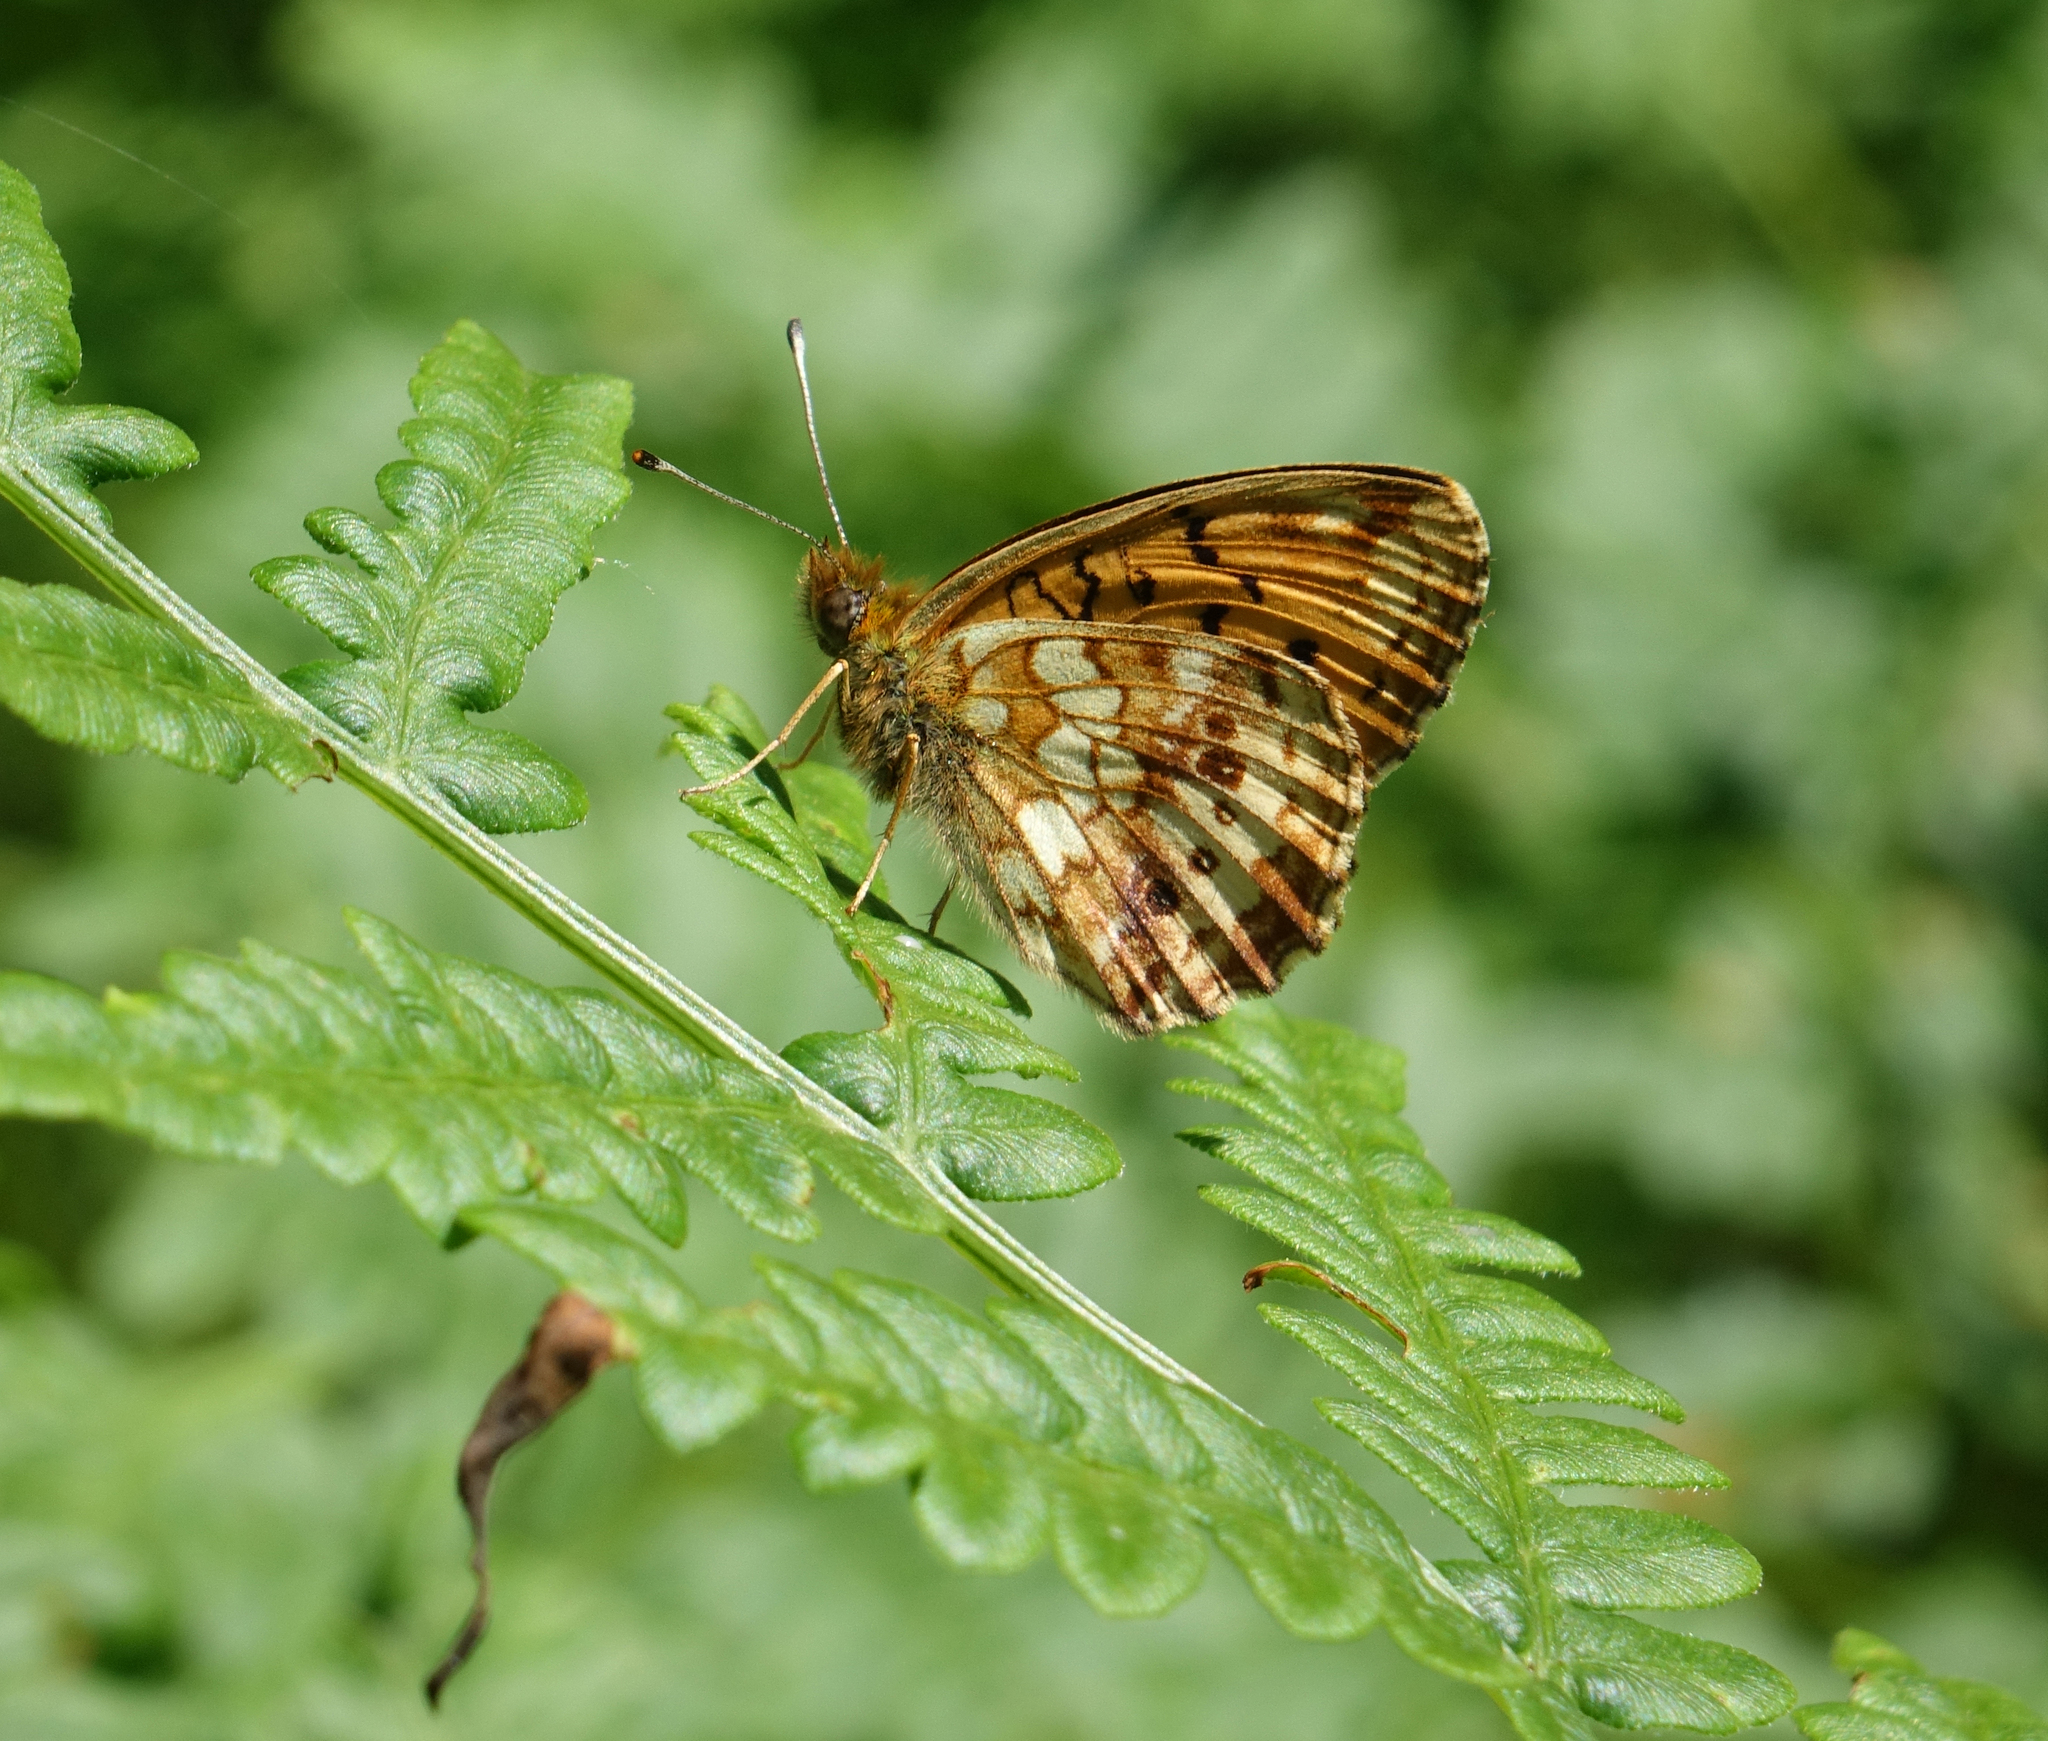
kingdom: Animalia
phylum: Arthropoda
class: Insecta
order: Lepidoptera
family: Nymphalidae
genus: Brenthis
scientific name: Brenthis ino
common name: Lesser marbled fritillary
